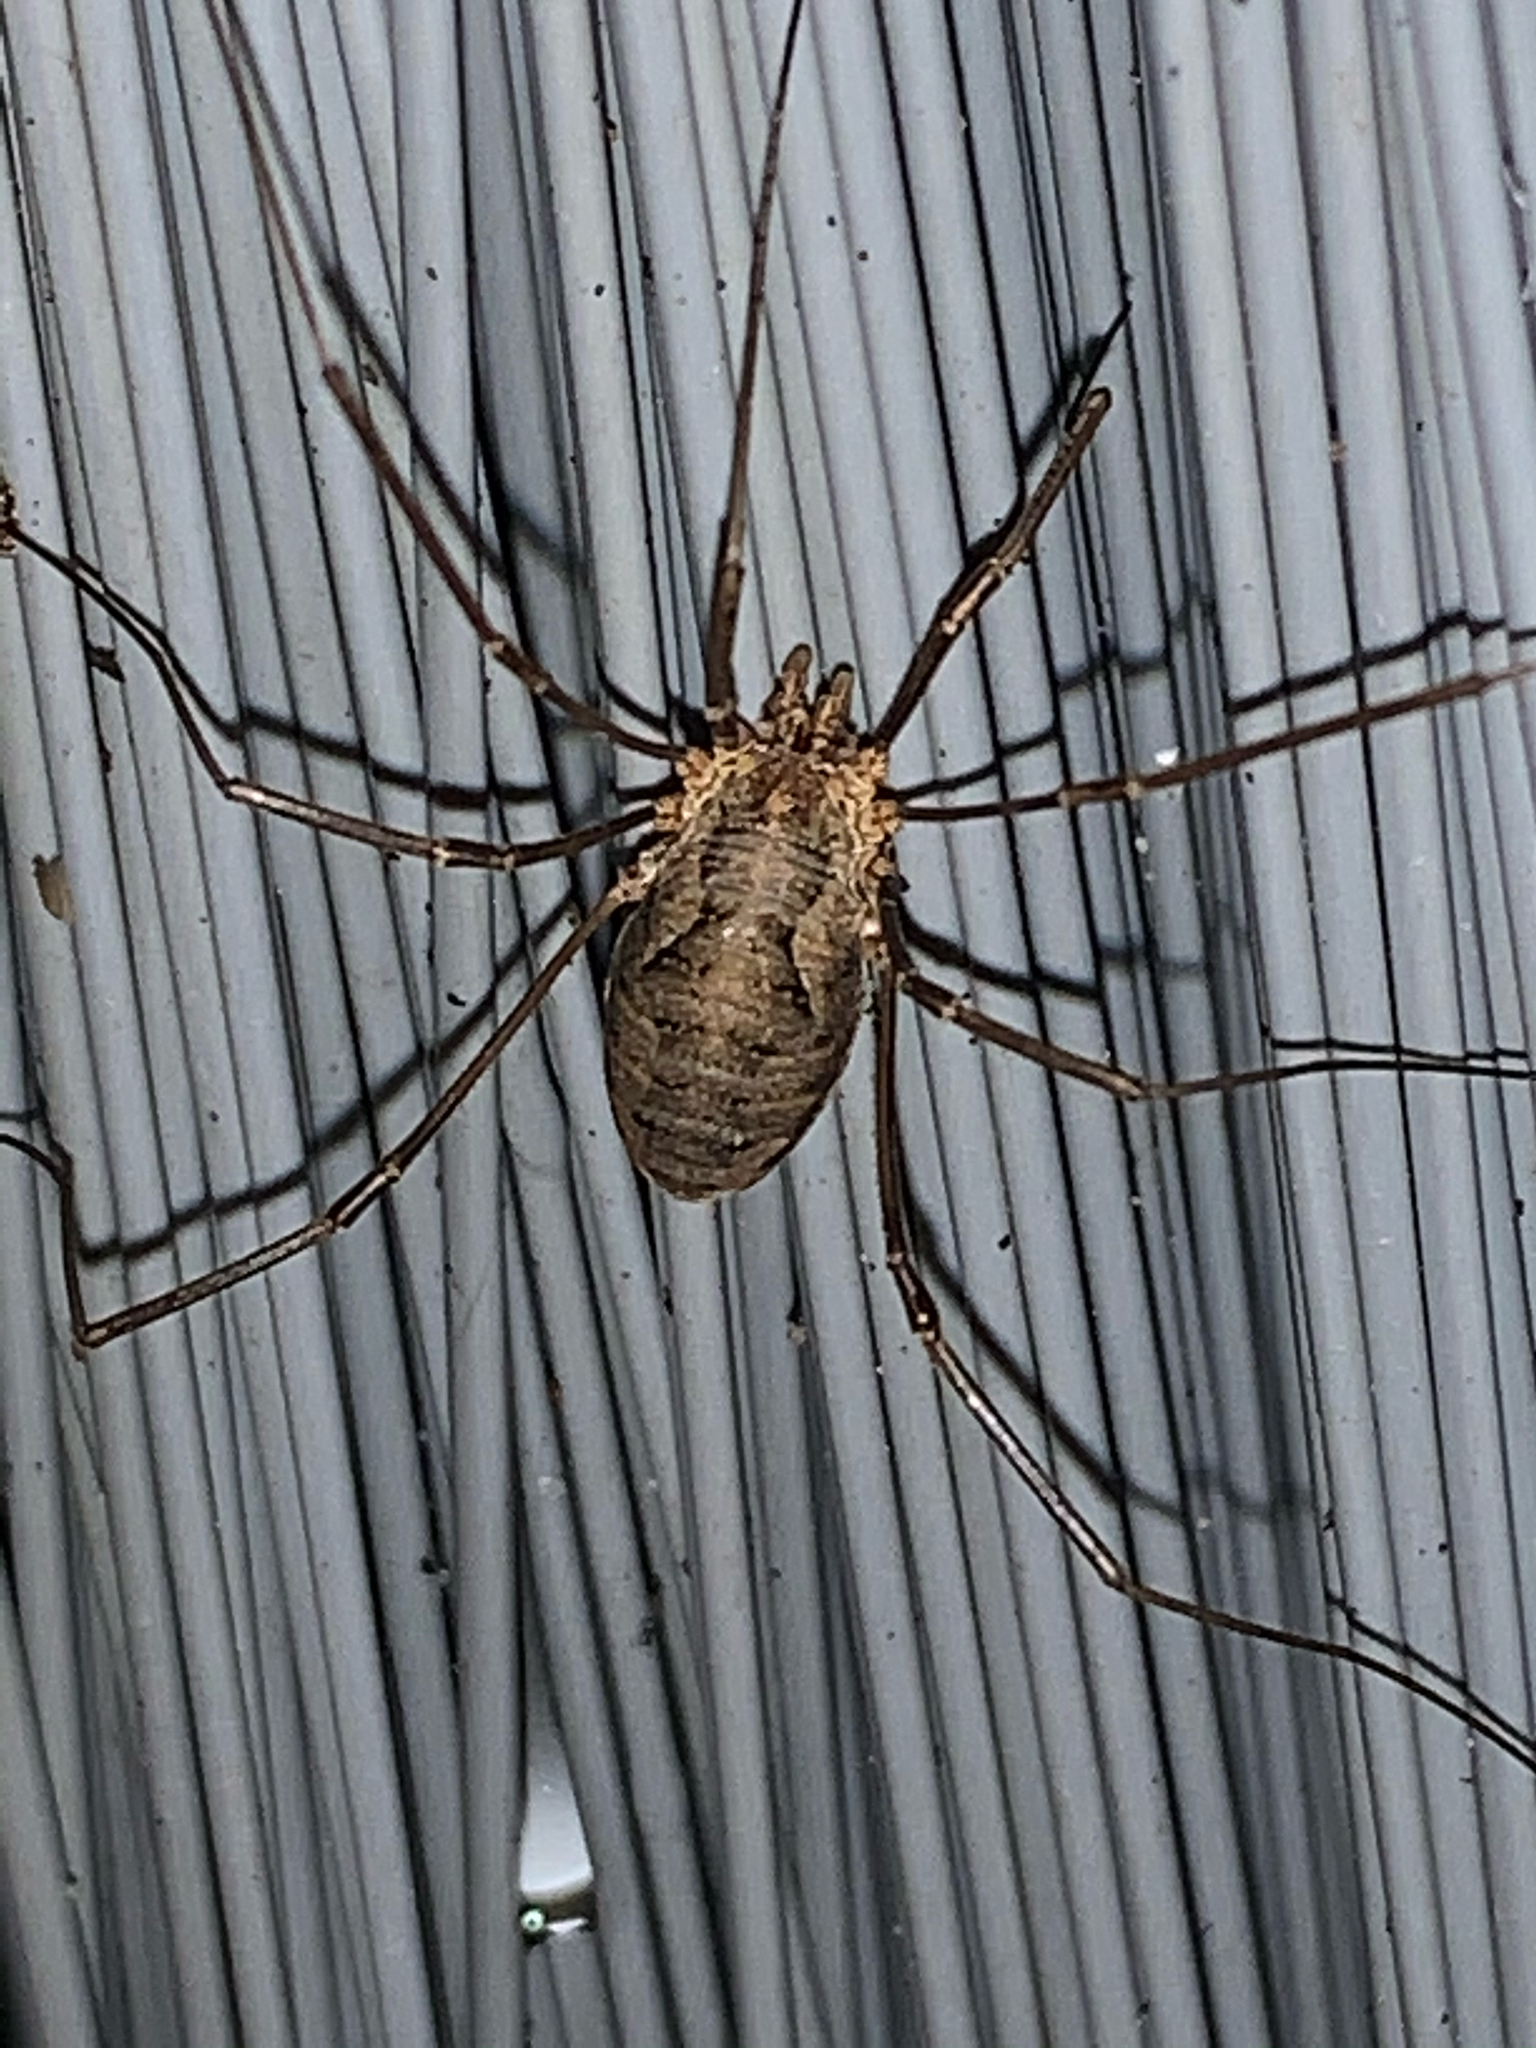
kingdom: Animalia
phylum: Arthropoda
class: Arachnida
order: Opiliones
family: Phalangiidae
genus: Phalangium
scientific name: Phalangium opilio
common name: Daddy longleg
